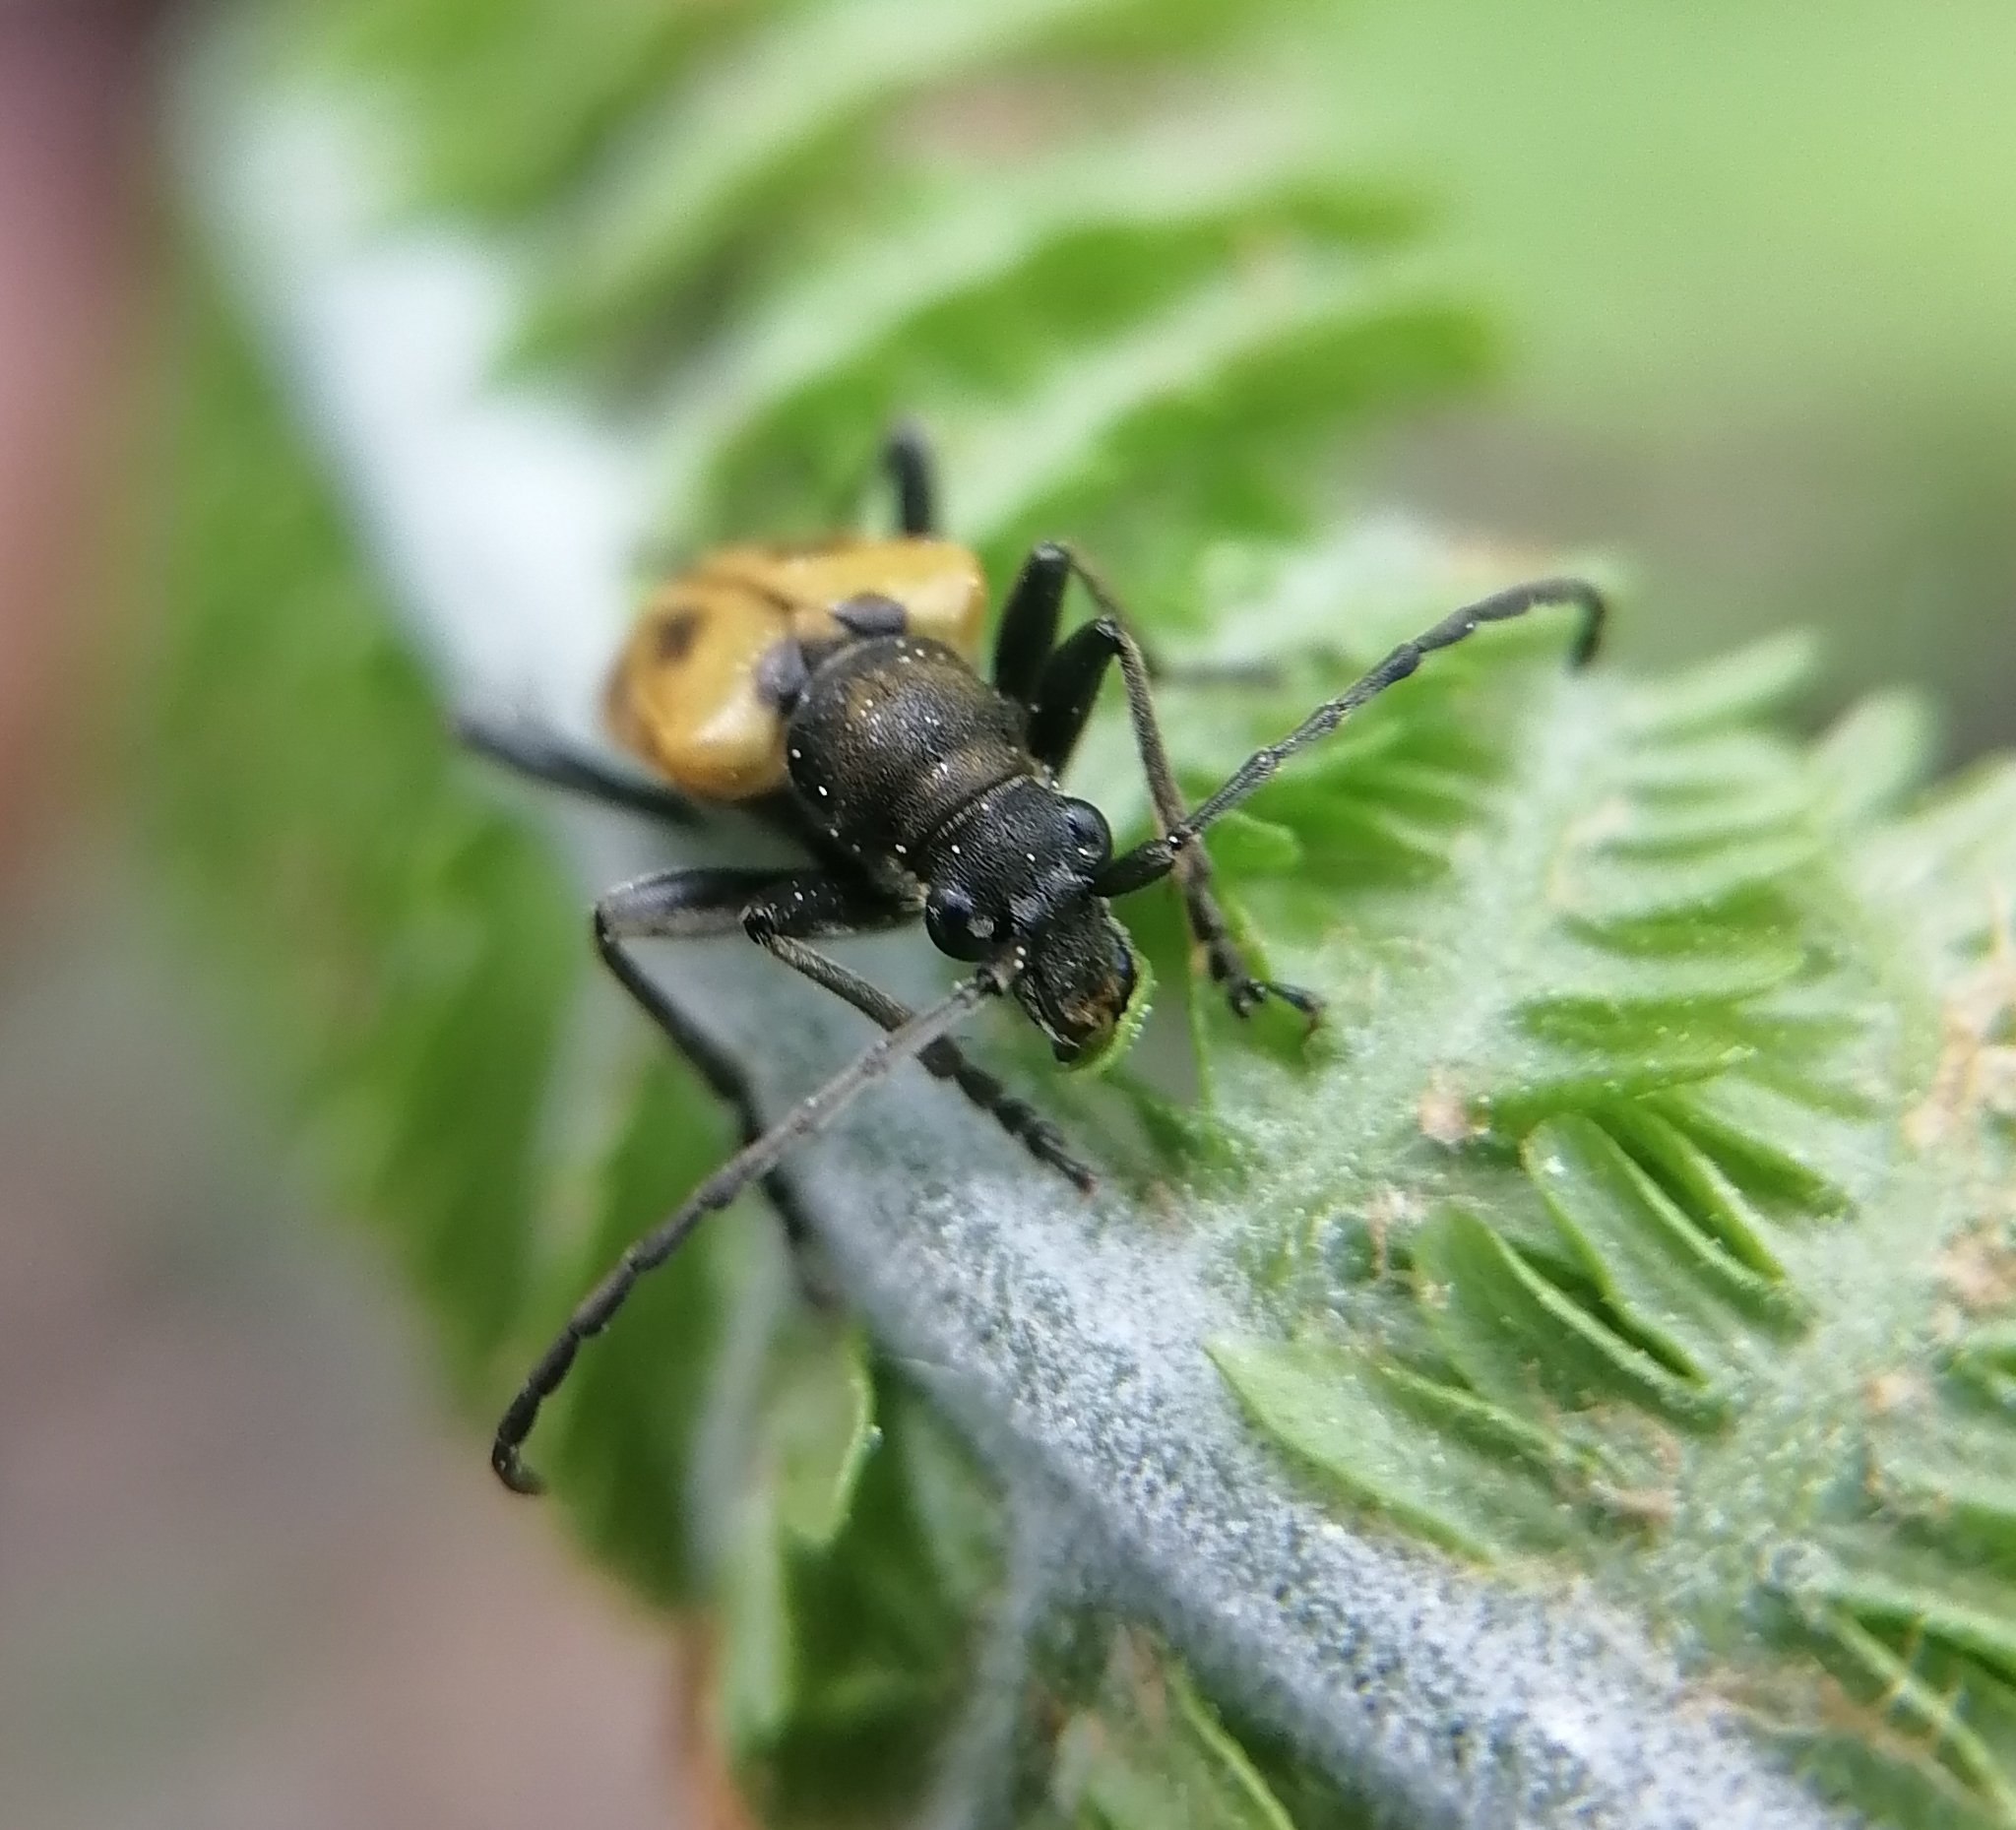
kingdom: Animalia
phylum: Arthropoda
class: Insecta
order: Coleoptera
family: Cerambycidae
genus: Brachyta
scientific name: Brachyta interrogationis
